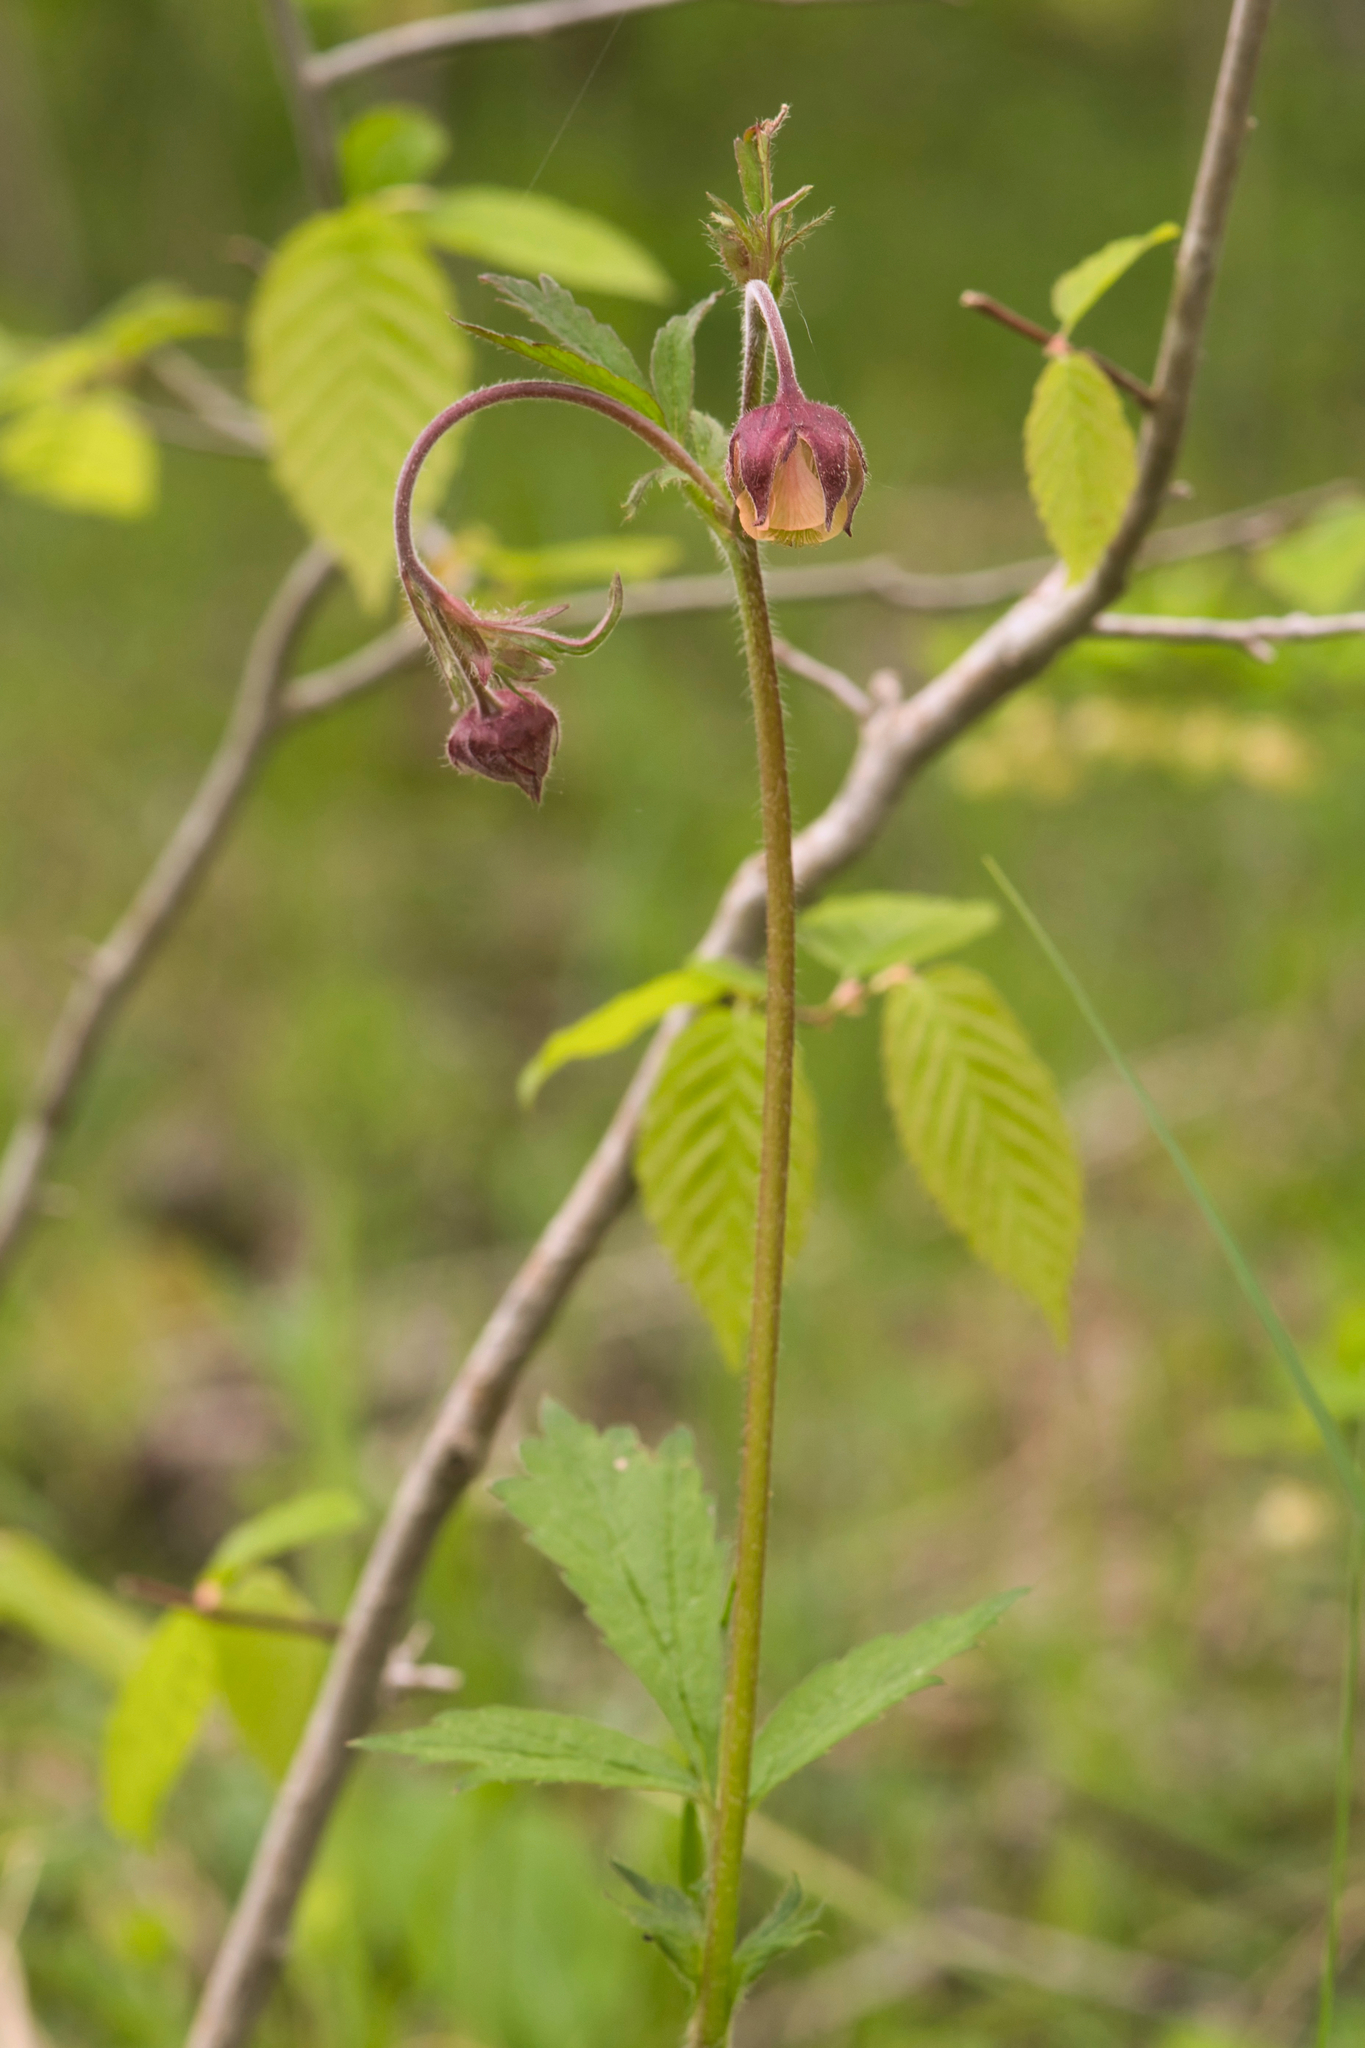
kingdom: Plantae
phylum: Tracheophyta
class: Magnoliopsida
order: Rosales
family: Rosaceae
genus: Geum
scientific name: Geum rivale
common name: Water avens
